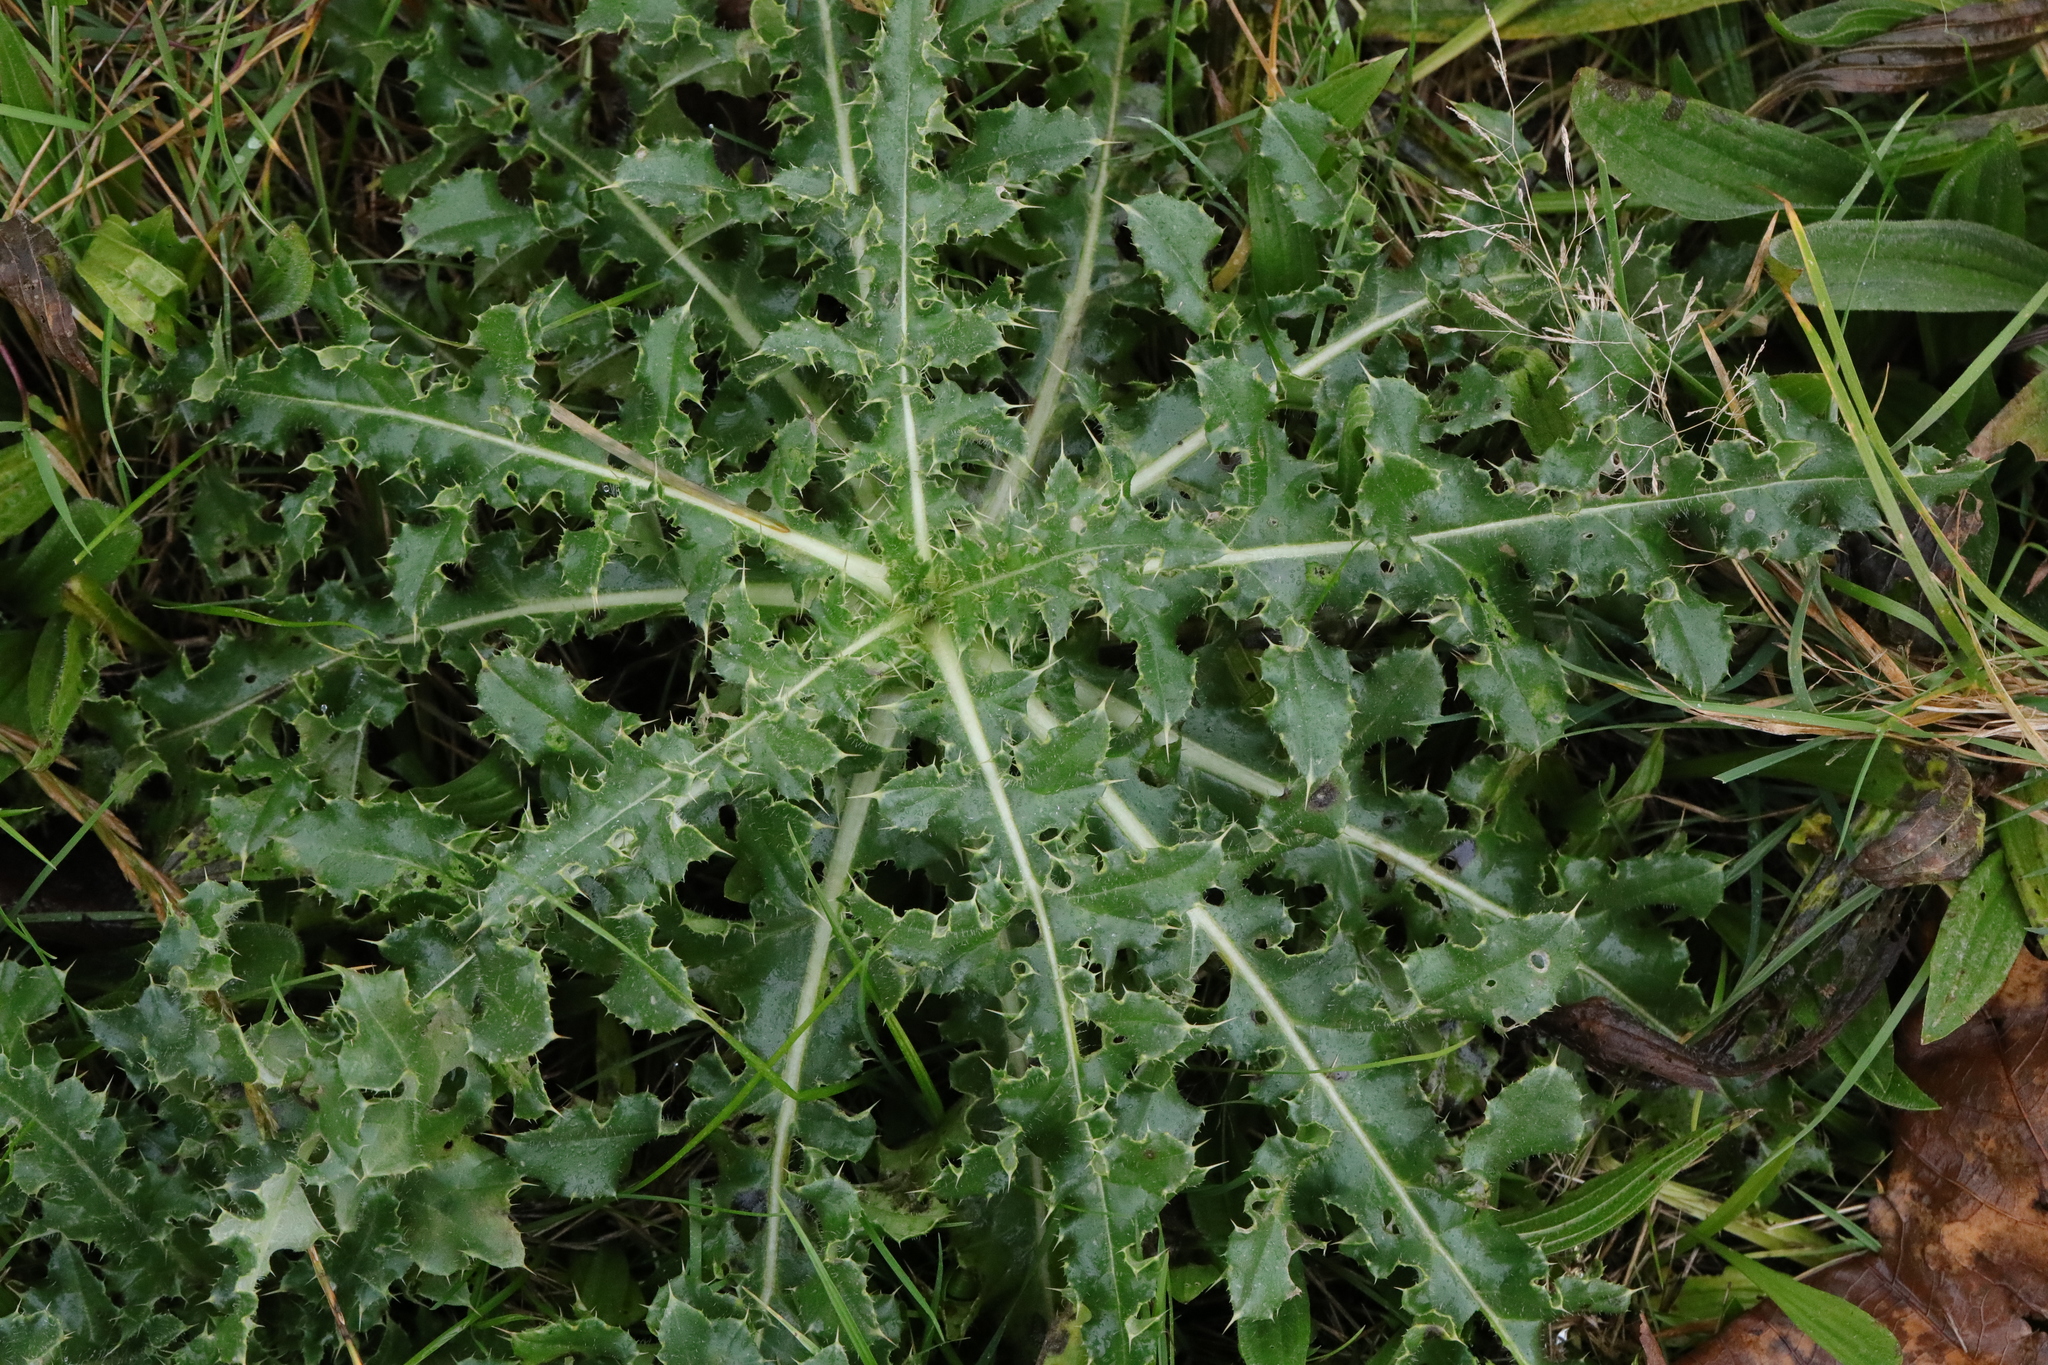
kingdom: Plantae
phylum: Tracheophyta
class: Magnoliopsida
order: Asterales
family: Asteraceae
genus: Cirsium
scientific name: Cirsium arvense
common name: Creeping thistle
